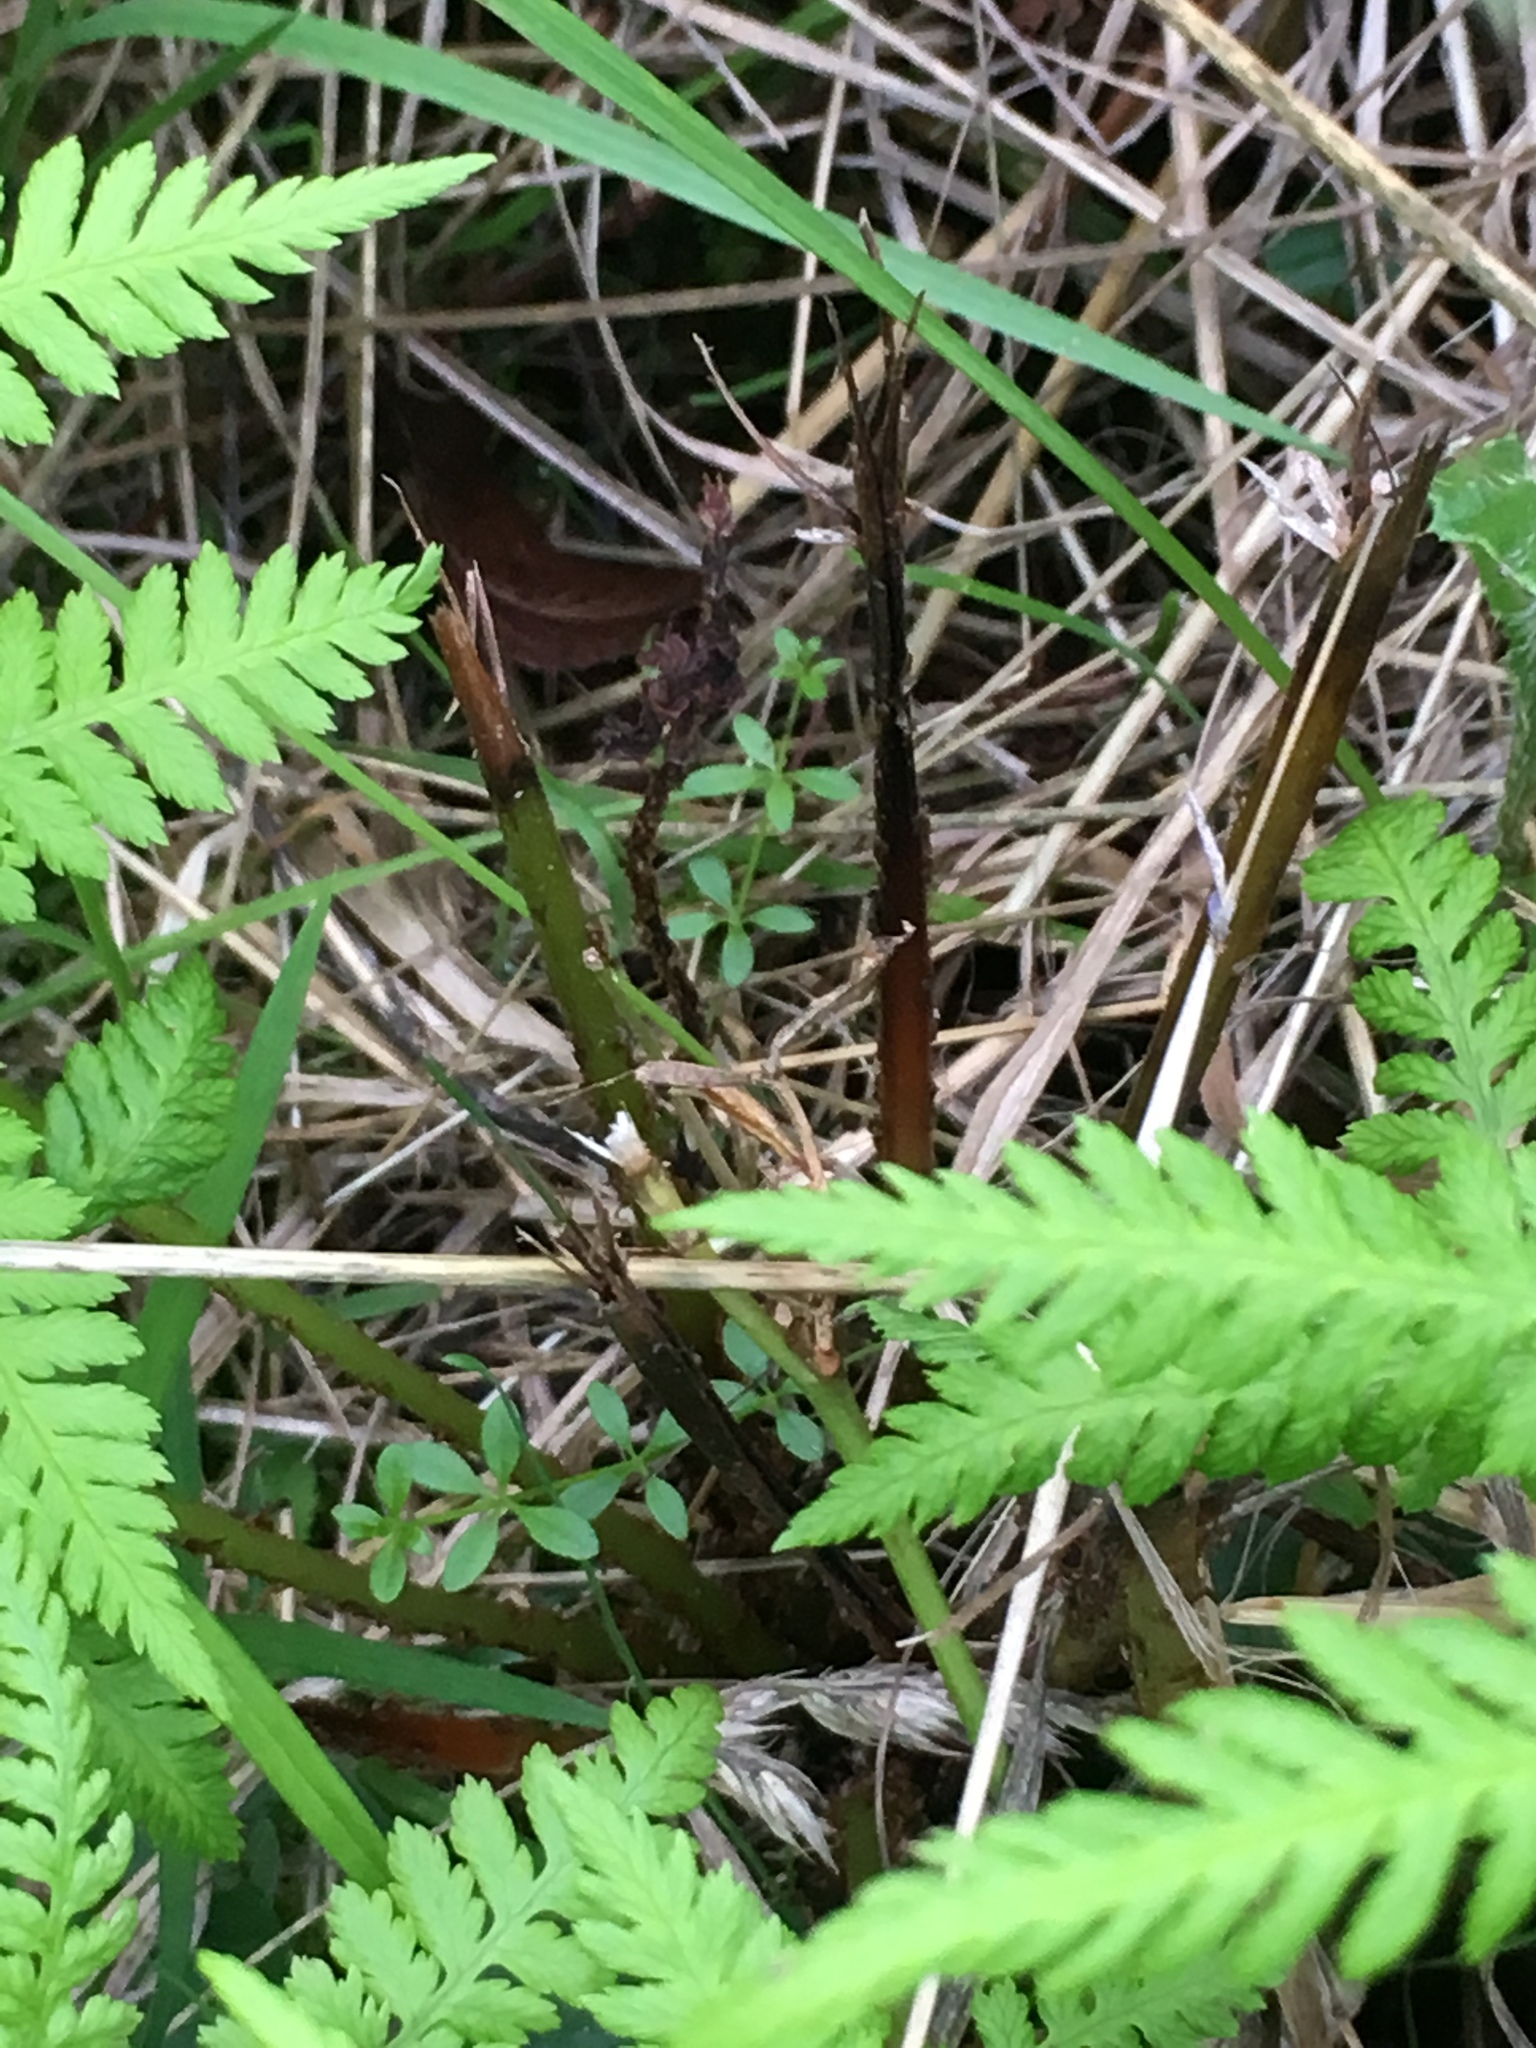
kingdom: Plantae
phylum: Tracheophyta
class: Polypodiopsida
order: Polypodiales
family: Dryopteridaceae
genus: Dryopteris
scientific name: Dryopteris filix-mas
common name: Male fern
